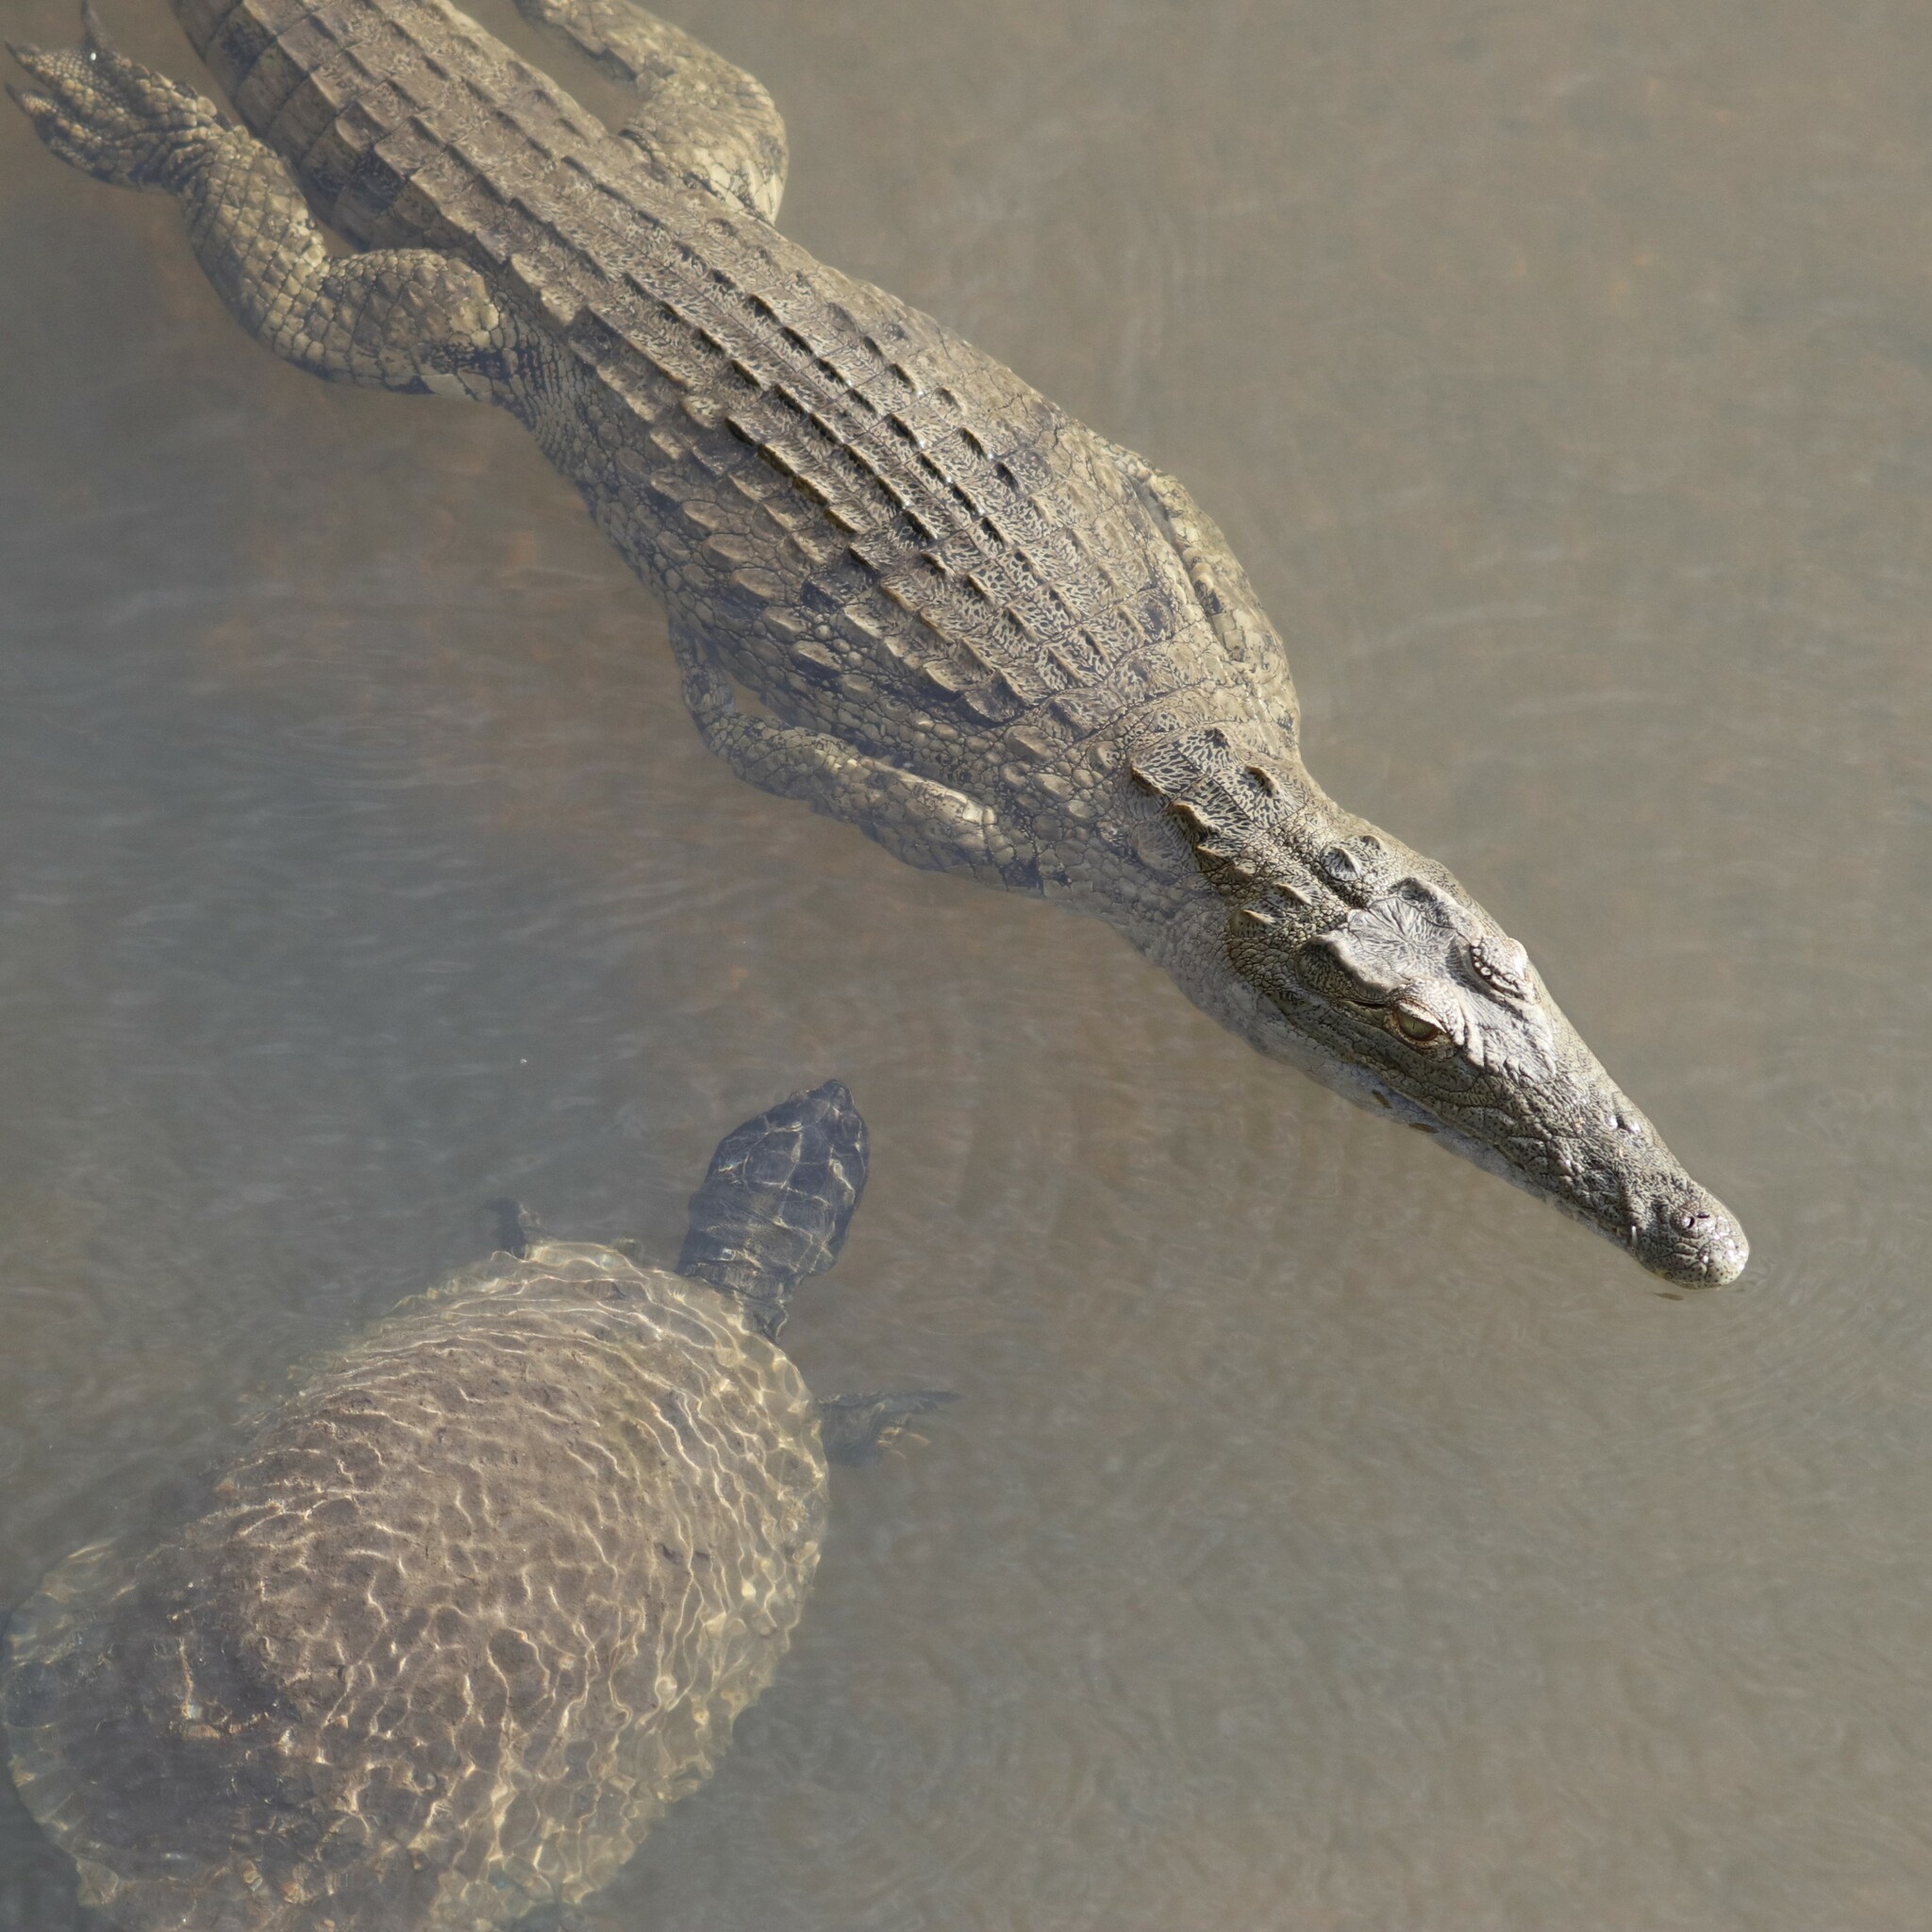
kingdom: Animalia
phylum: Chordata
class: Testudines
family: Pelomedusidae
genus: Pelusios
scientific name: Pelusios sinuatus
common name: Serrated hinged terrapin
